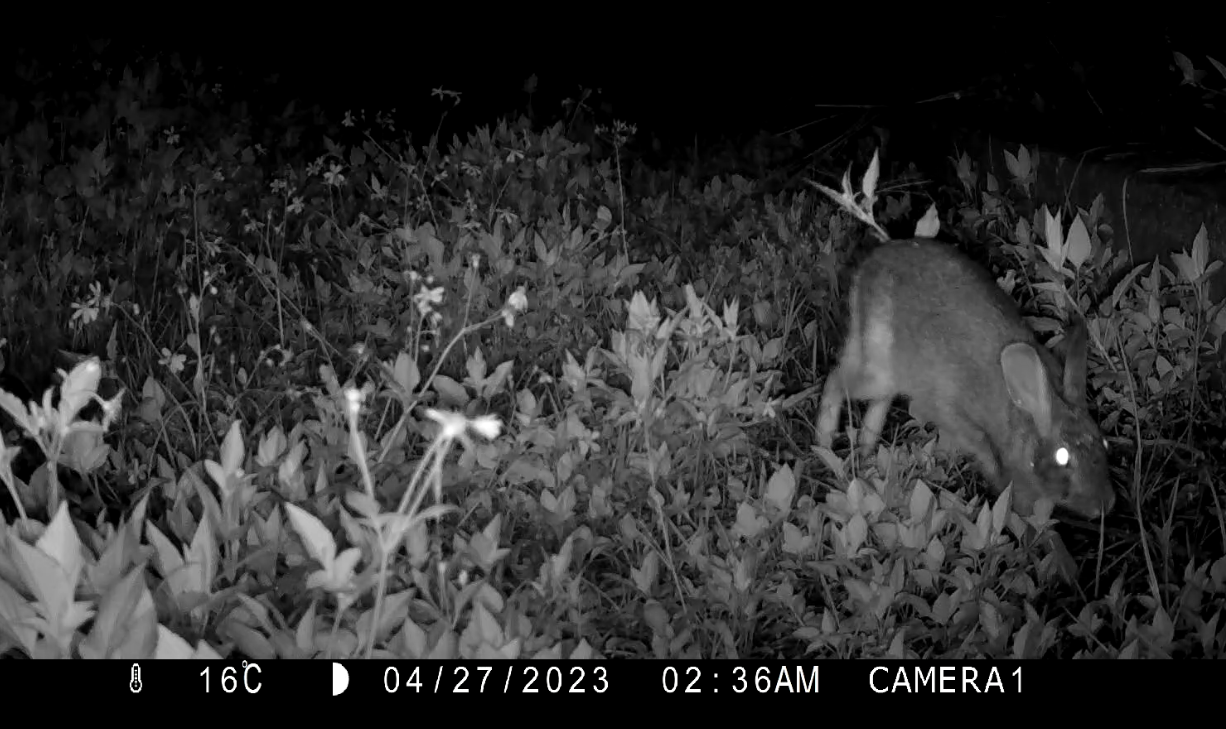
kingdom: Animalia
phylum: Chordata
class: Mammalia
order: Lagomorpha
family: Leporidae
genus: Lepus
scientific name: Lepus sinensis
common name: Chinese hare
